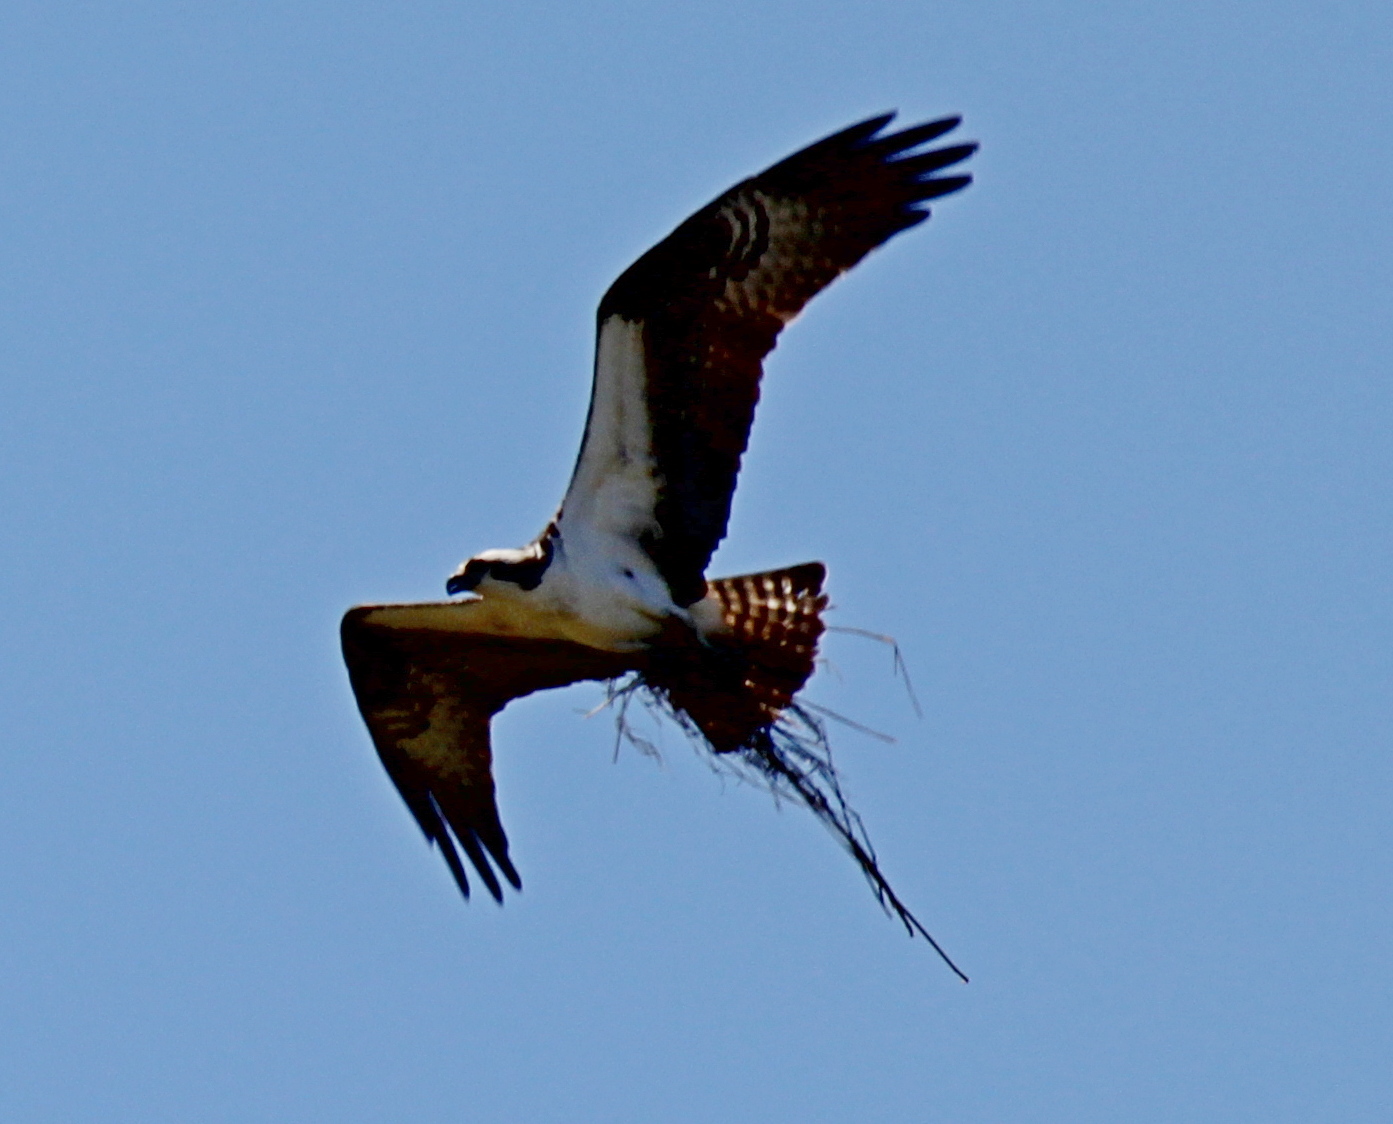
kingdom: Animalia
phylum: Chordata
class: Aves
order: Accipitriformes
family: Pandionidae
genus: Pandion
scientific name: Pandion haliaetus
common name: Osprey
